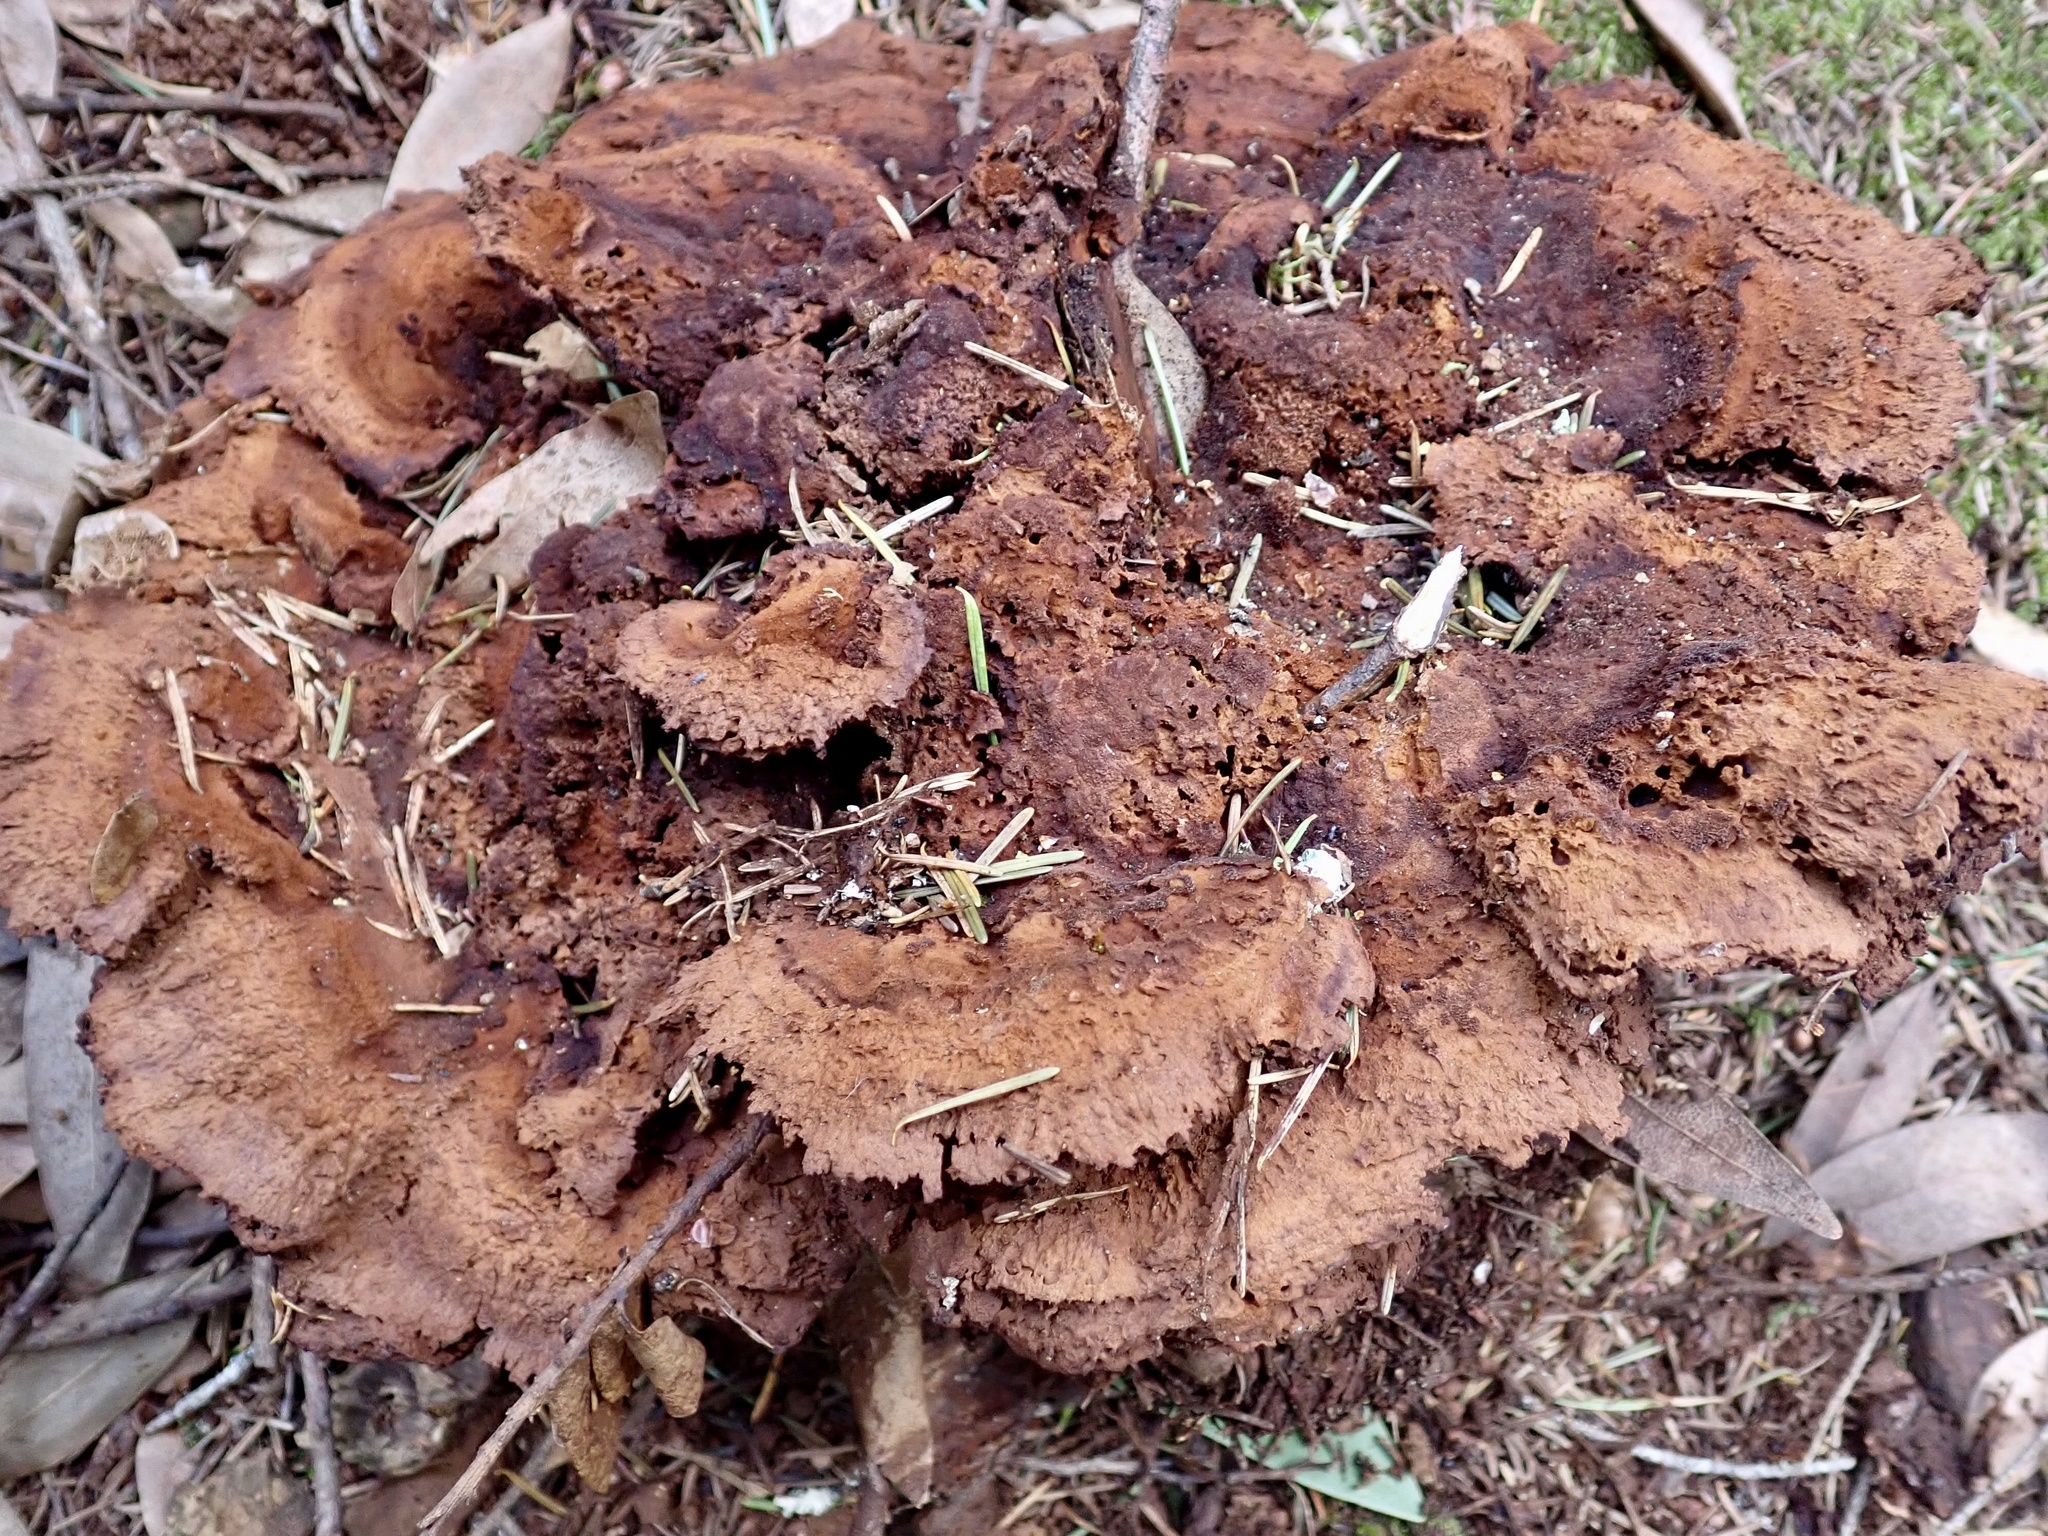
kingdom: Fungi
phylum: Basidiomycota
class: Agaricomycetes
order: Polyporales
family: Laetiporaceae
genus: Phaeolus
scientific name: Phaeolus schweinitzii
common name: Dyer's mazegill
